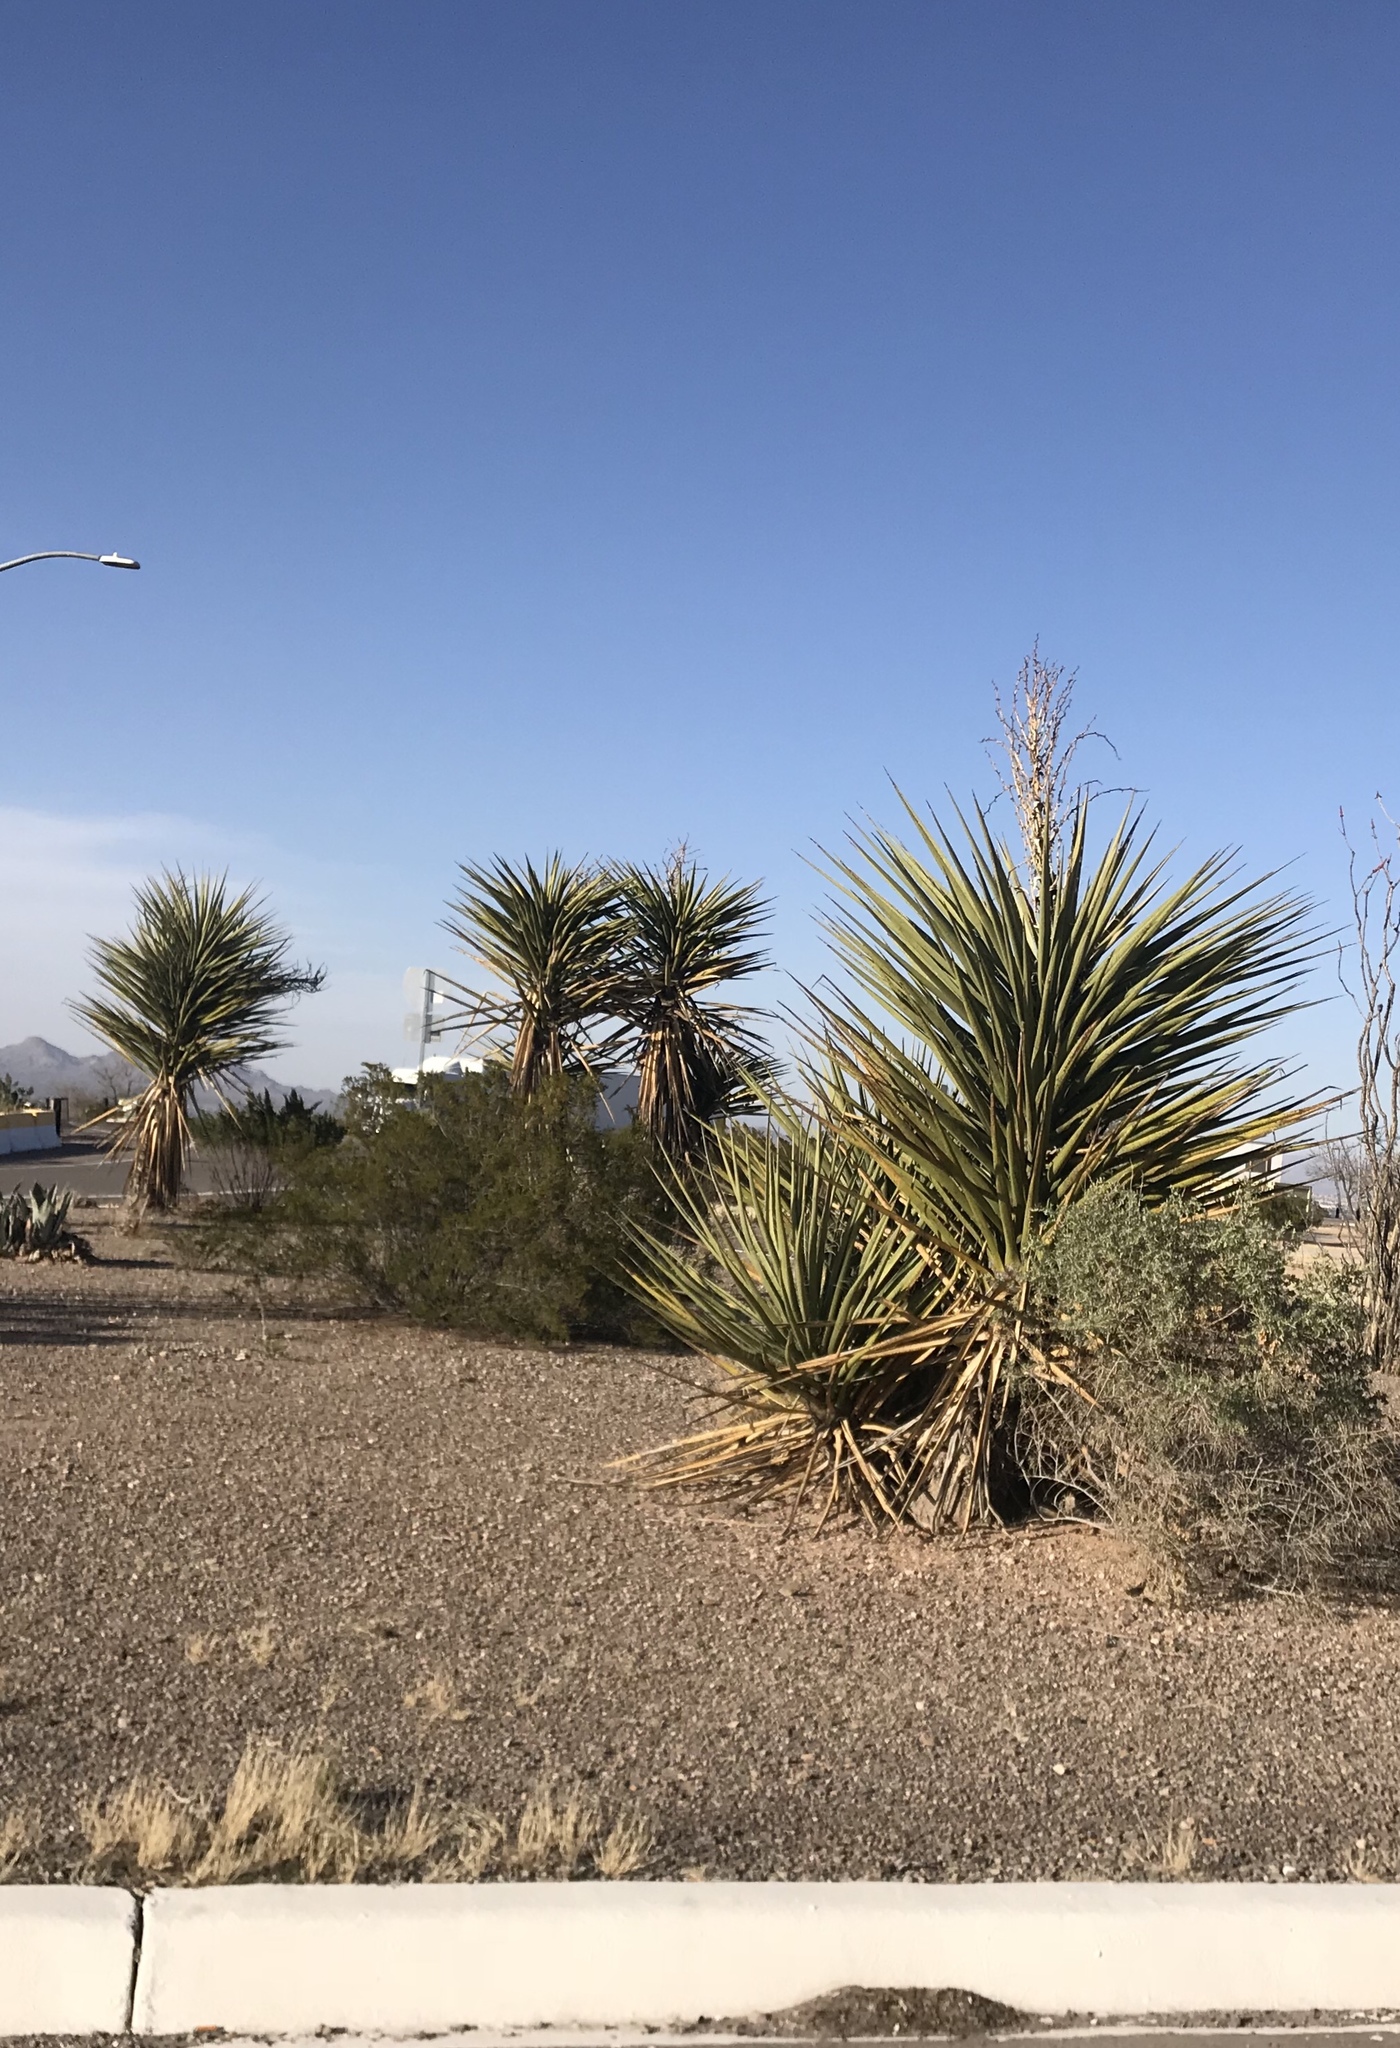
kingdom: Plantae
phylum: Tracheophyta
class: Liliopsida
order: Asparagales
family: Asparagaceae
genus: Yucca
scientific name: Yucca treculiana
